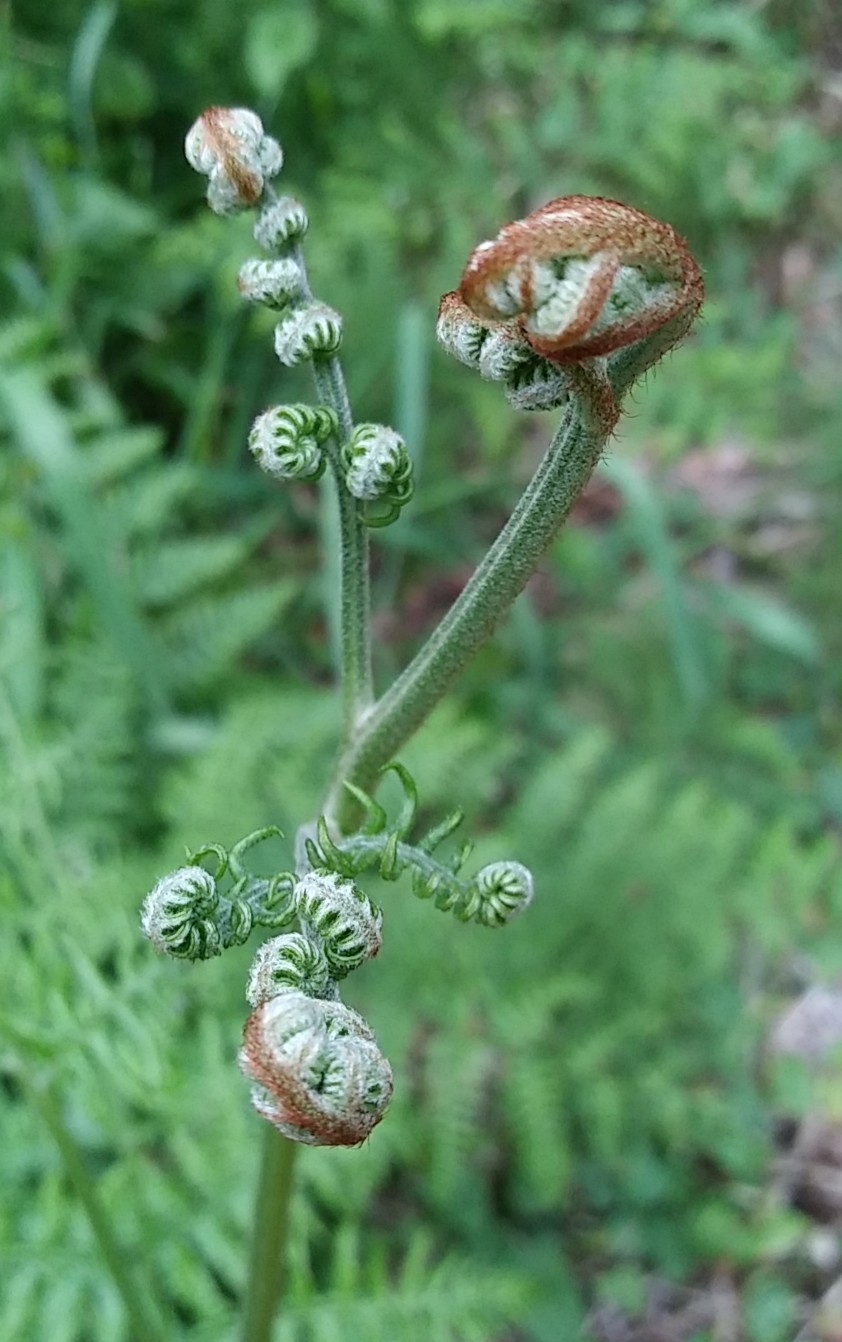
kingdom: Plantae
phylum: Tracheophyta
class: Polypodiopsida
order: Polypodiales
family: Dennstaedtiaceae
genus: Pteridium
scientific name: Pteridium aquilinum
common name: Bracken
